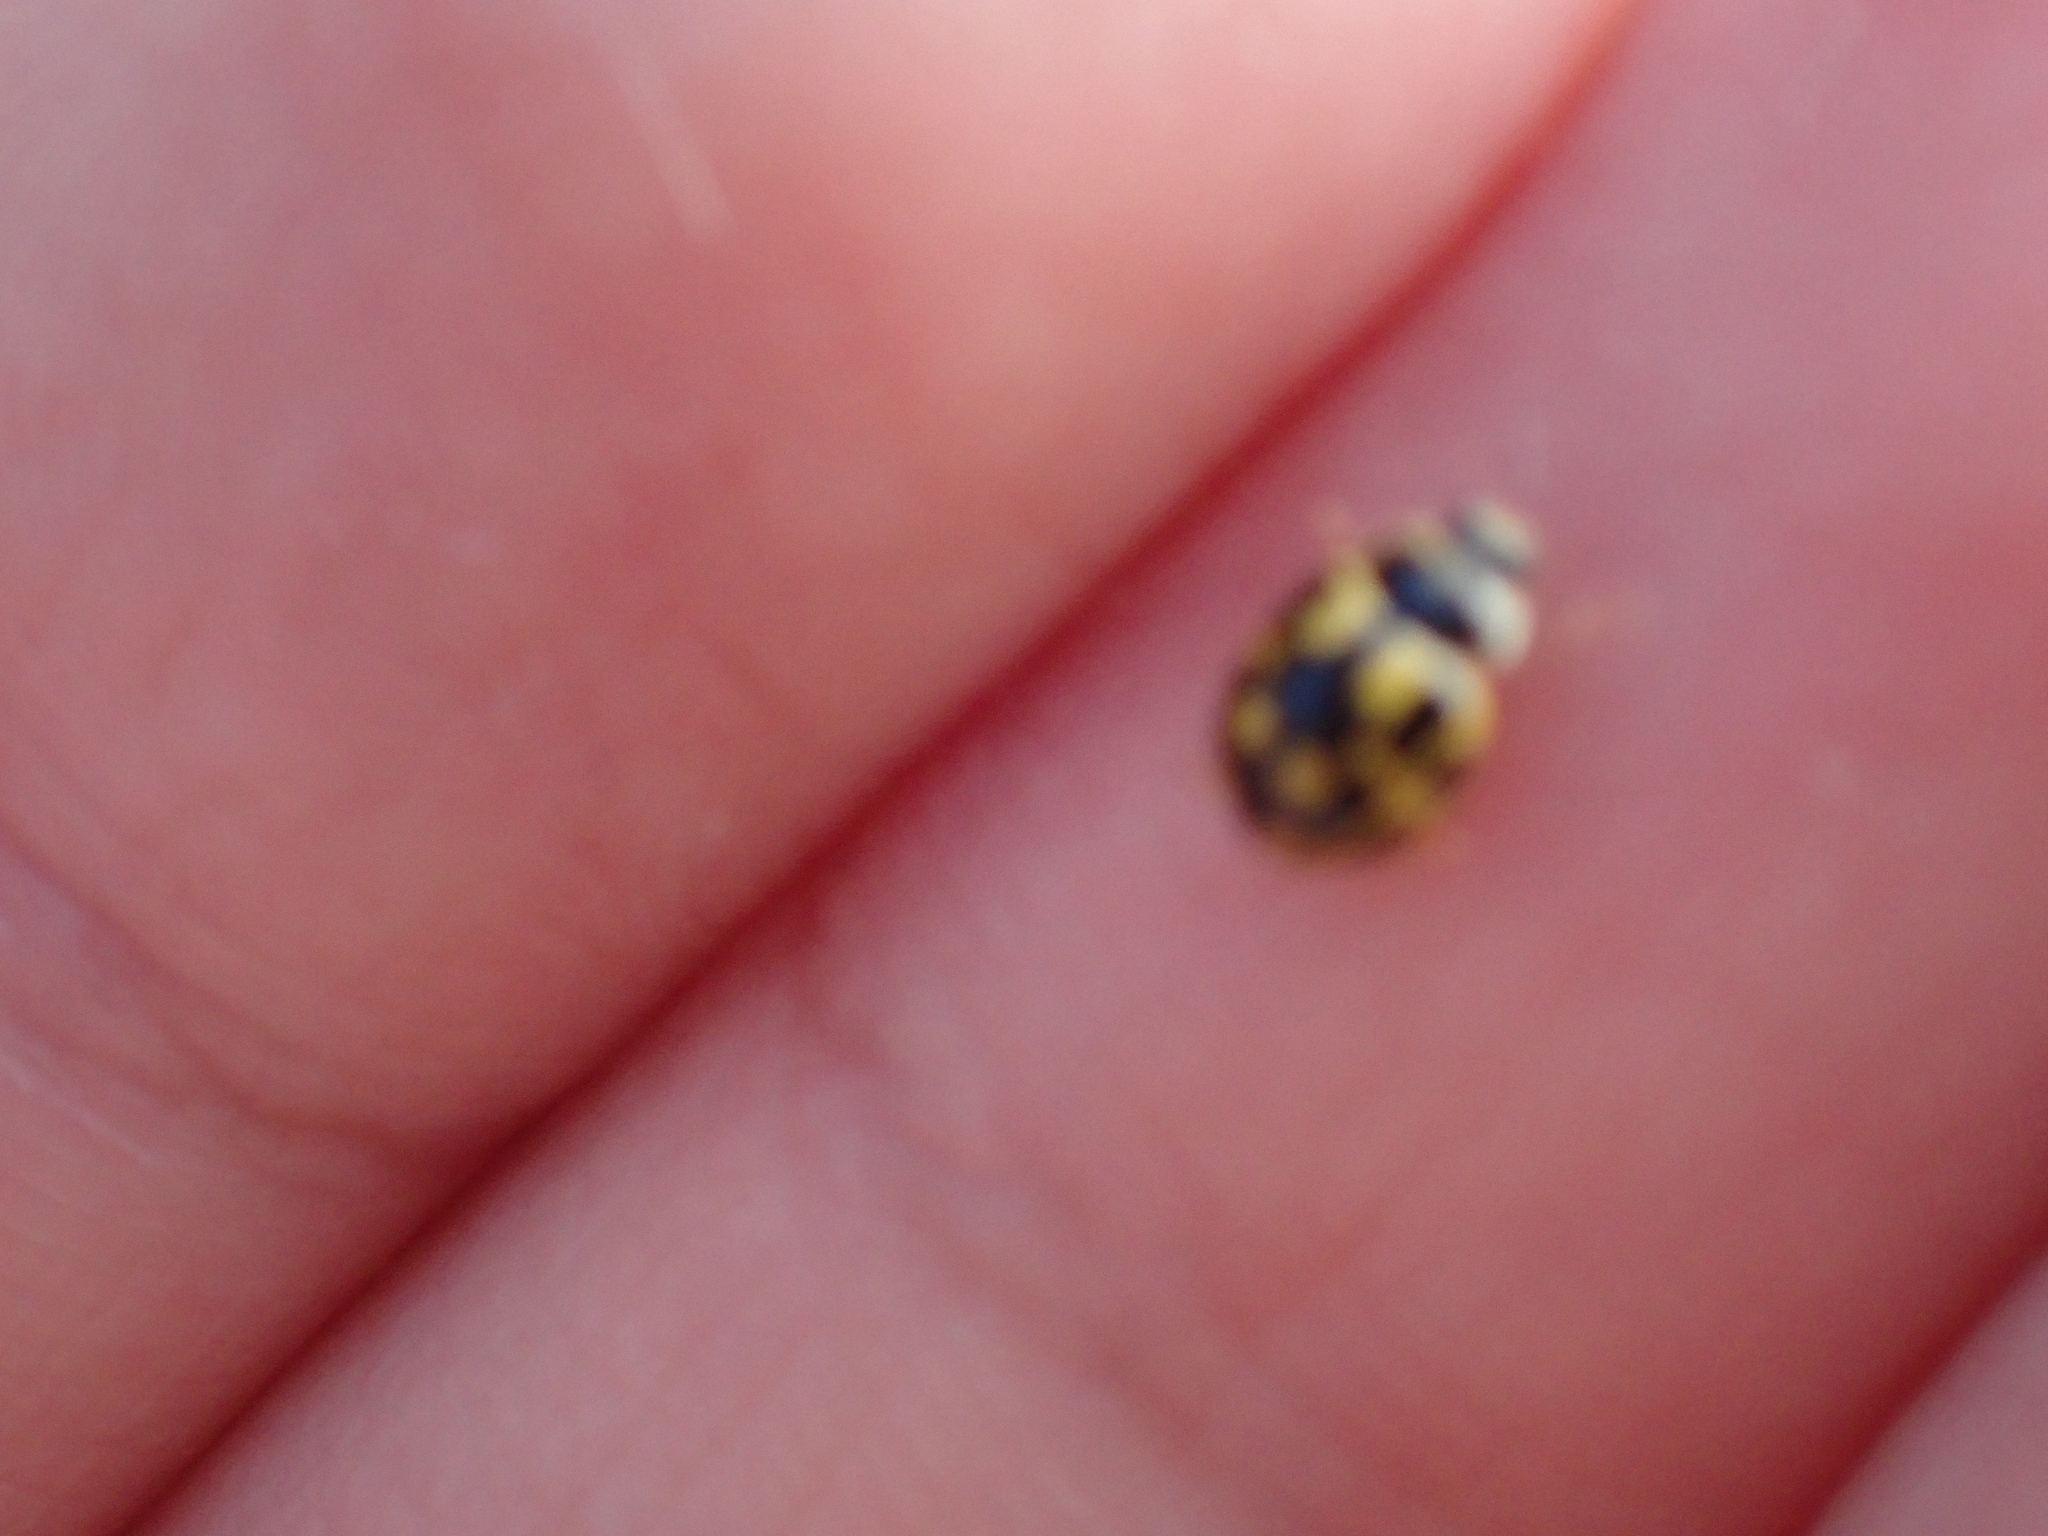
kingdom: Animalia
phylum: Arthropoda
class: Insecta
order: Coleoptera
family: Coccinellidae
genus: Propylaea
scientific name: Propylaea quatuordecimpunctata
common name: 14-spotted ladybird beetle
